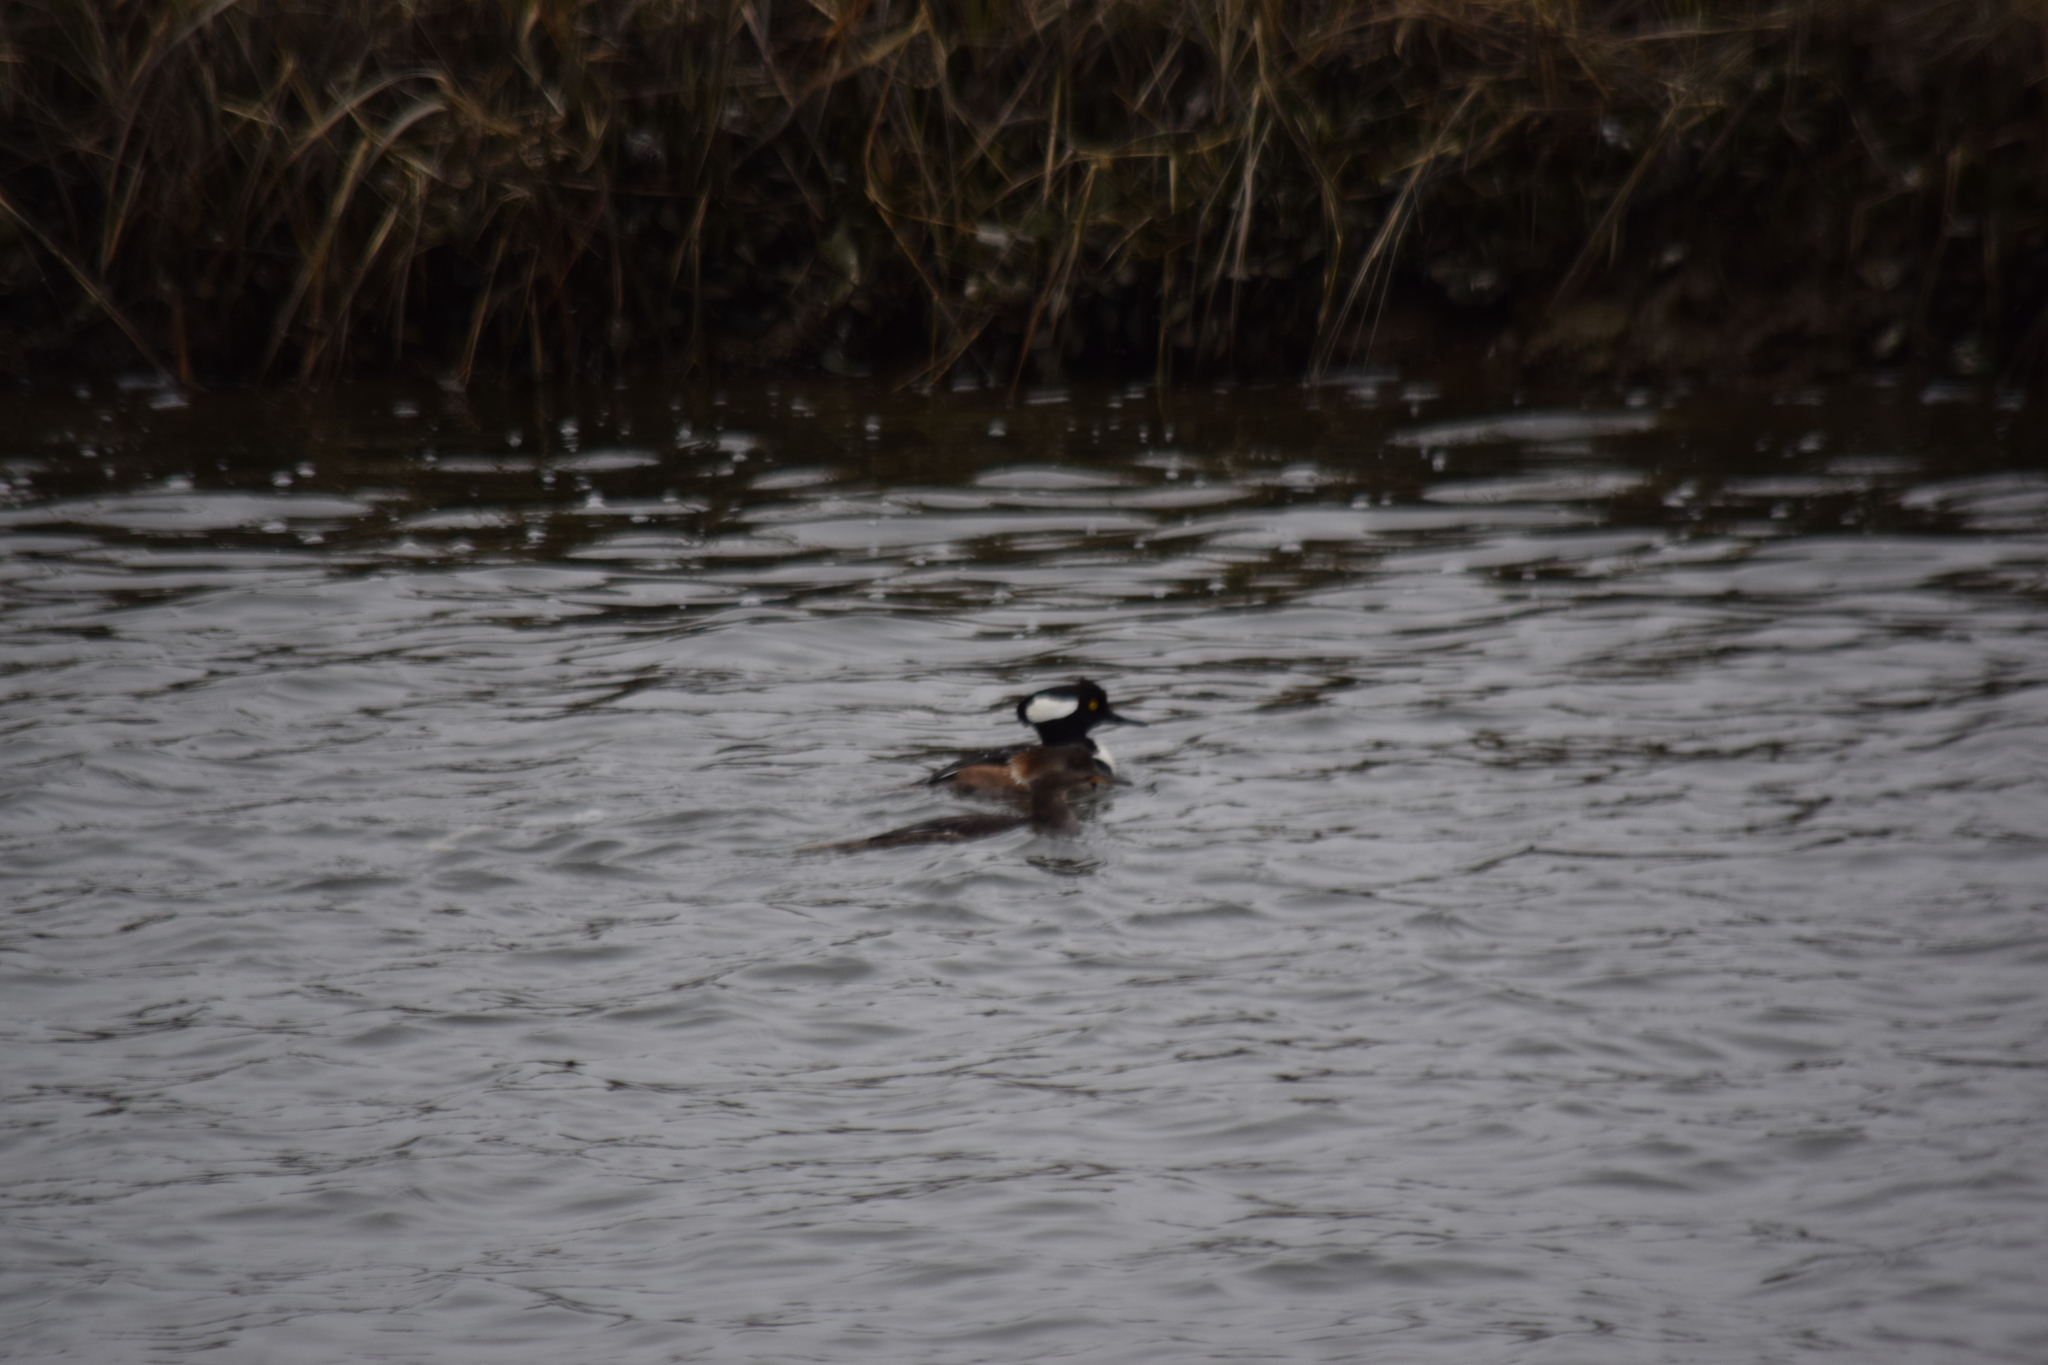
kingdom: Animalia
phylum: Chordata
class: Aves
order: Anseriformes
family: Anatidae
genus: Lophodytes
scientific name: Lophodytes cucullatus
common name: Hooded merganser
